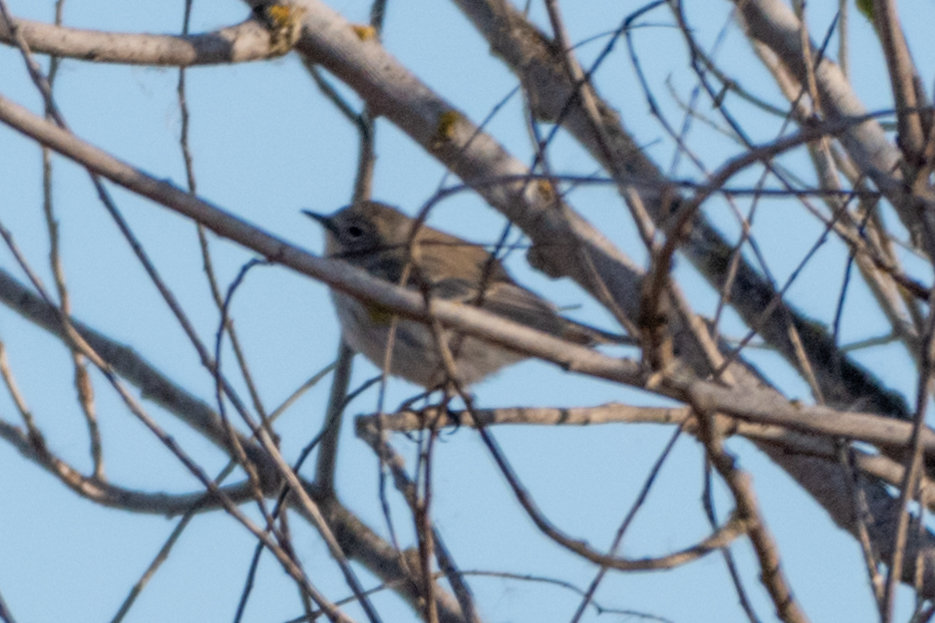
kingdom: Animalia
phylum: Chordata
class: Aves
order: Passeriformes
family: Parulidae
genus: Setophaga
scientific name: Setophaga coronata
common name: Myrtle warbler
